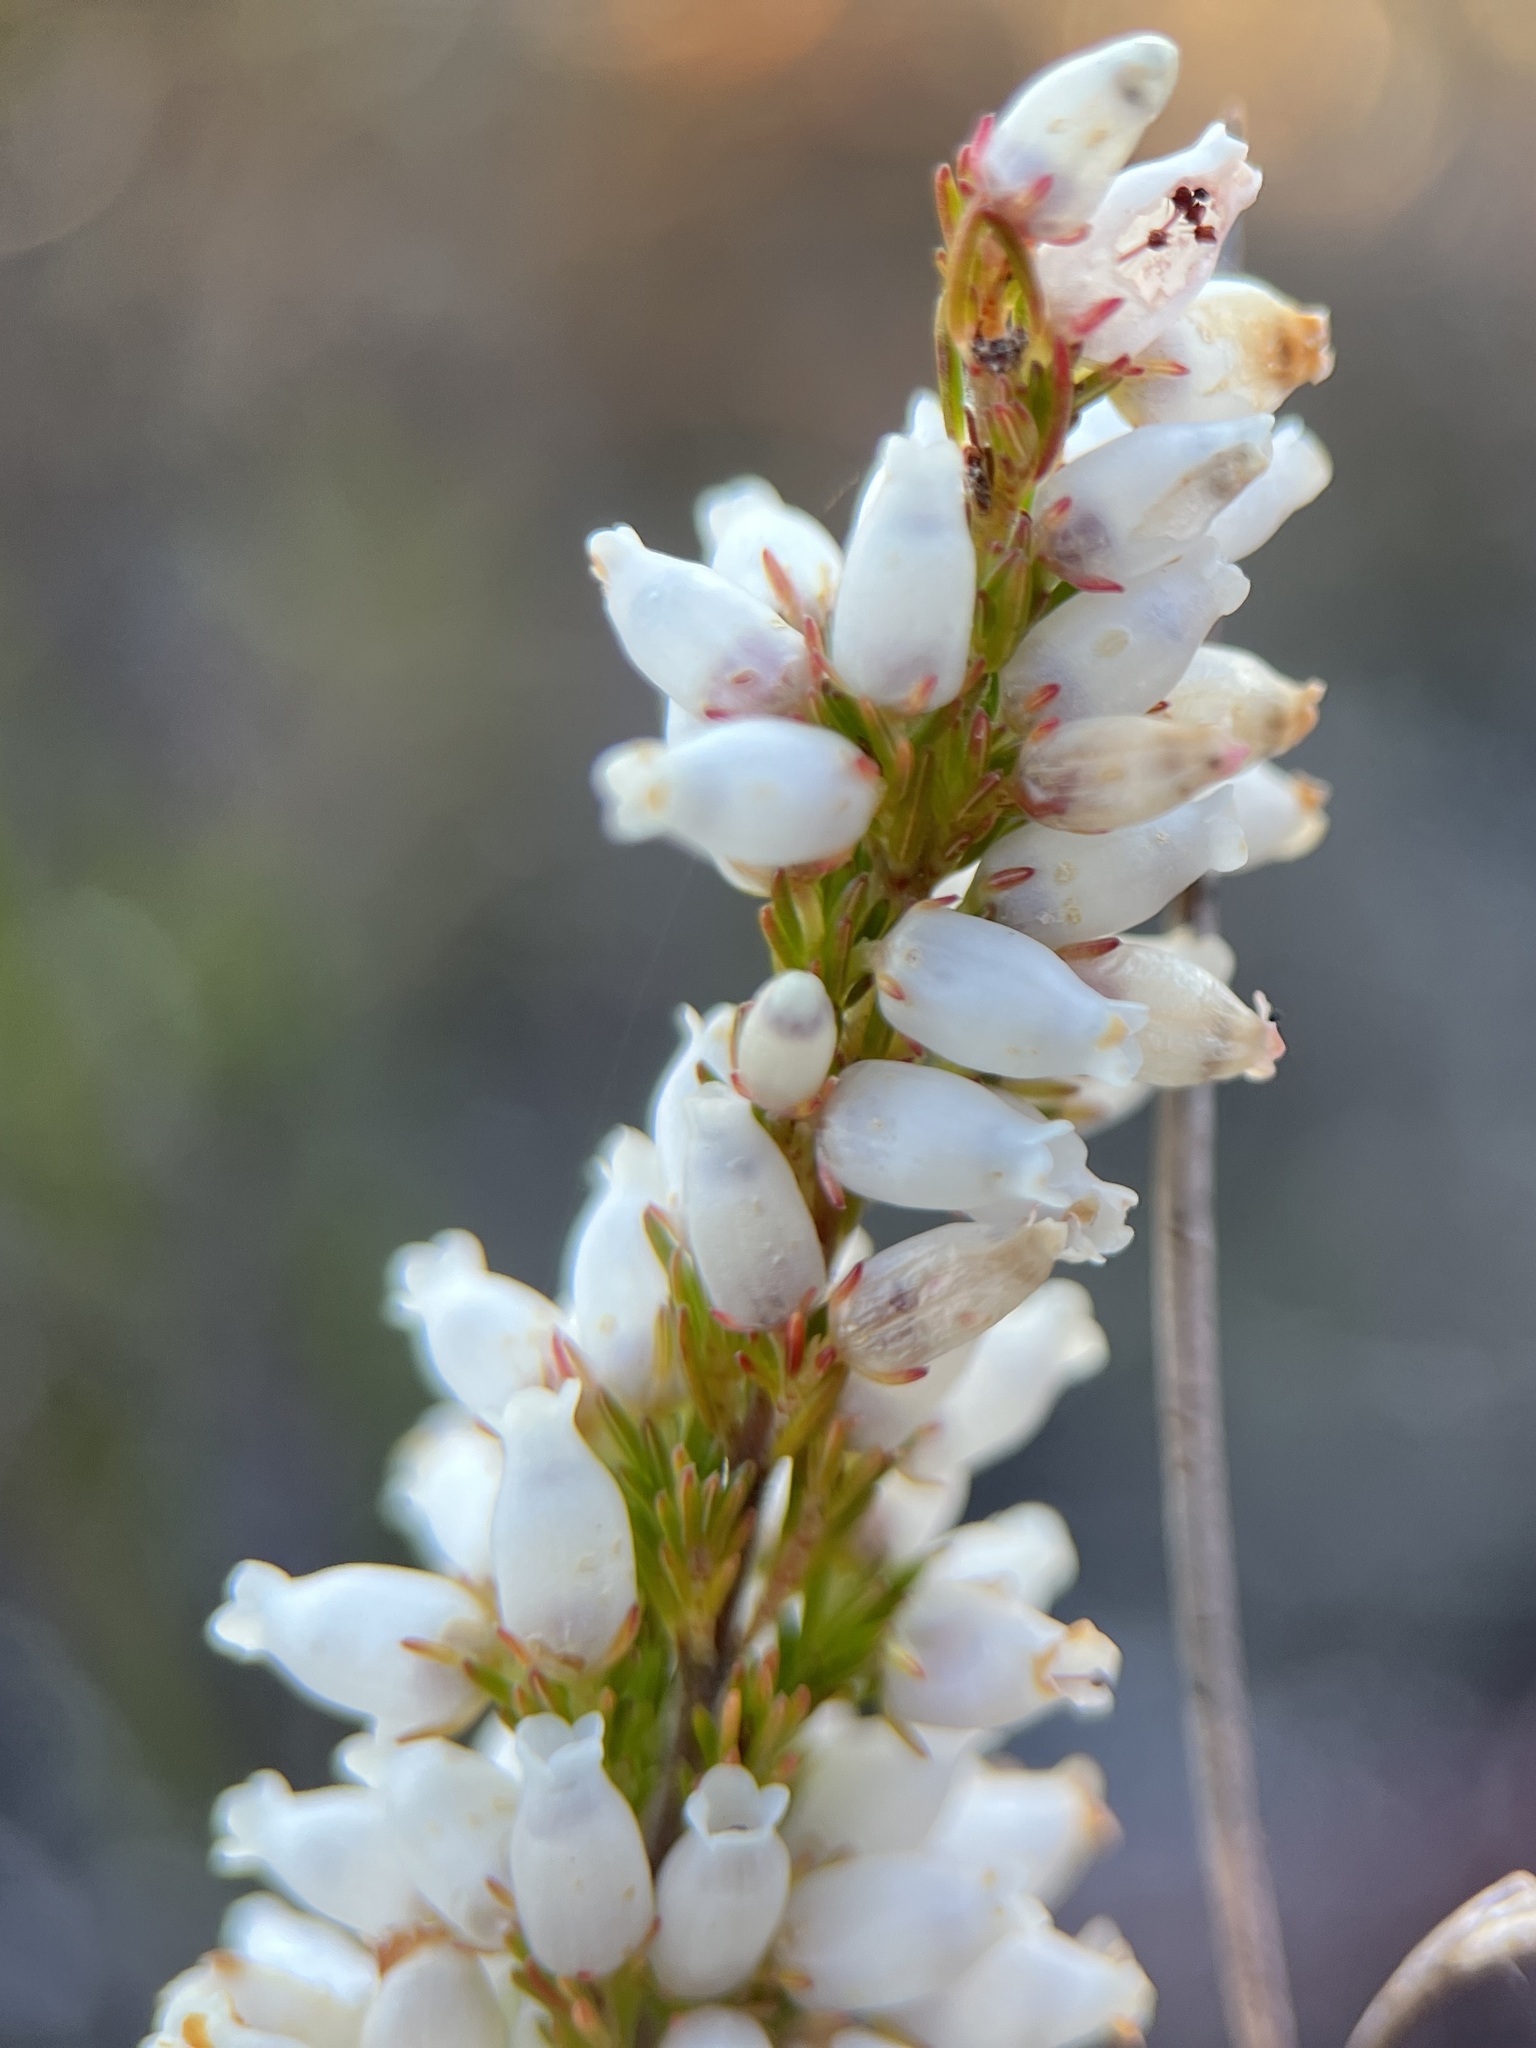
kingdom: Plantae
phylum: Tracheophyta
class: Magnoliopsida
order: Ericales
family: Ericaceae
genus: Erica
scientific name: Erica sitiens
